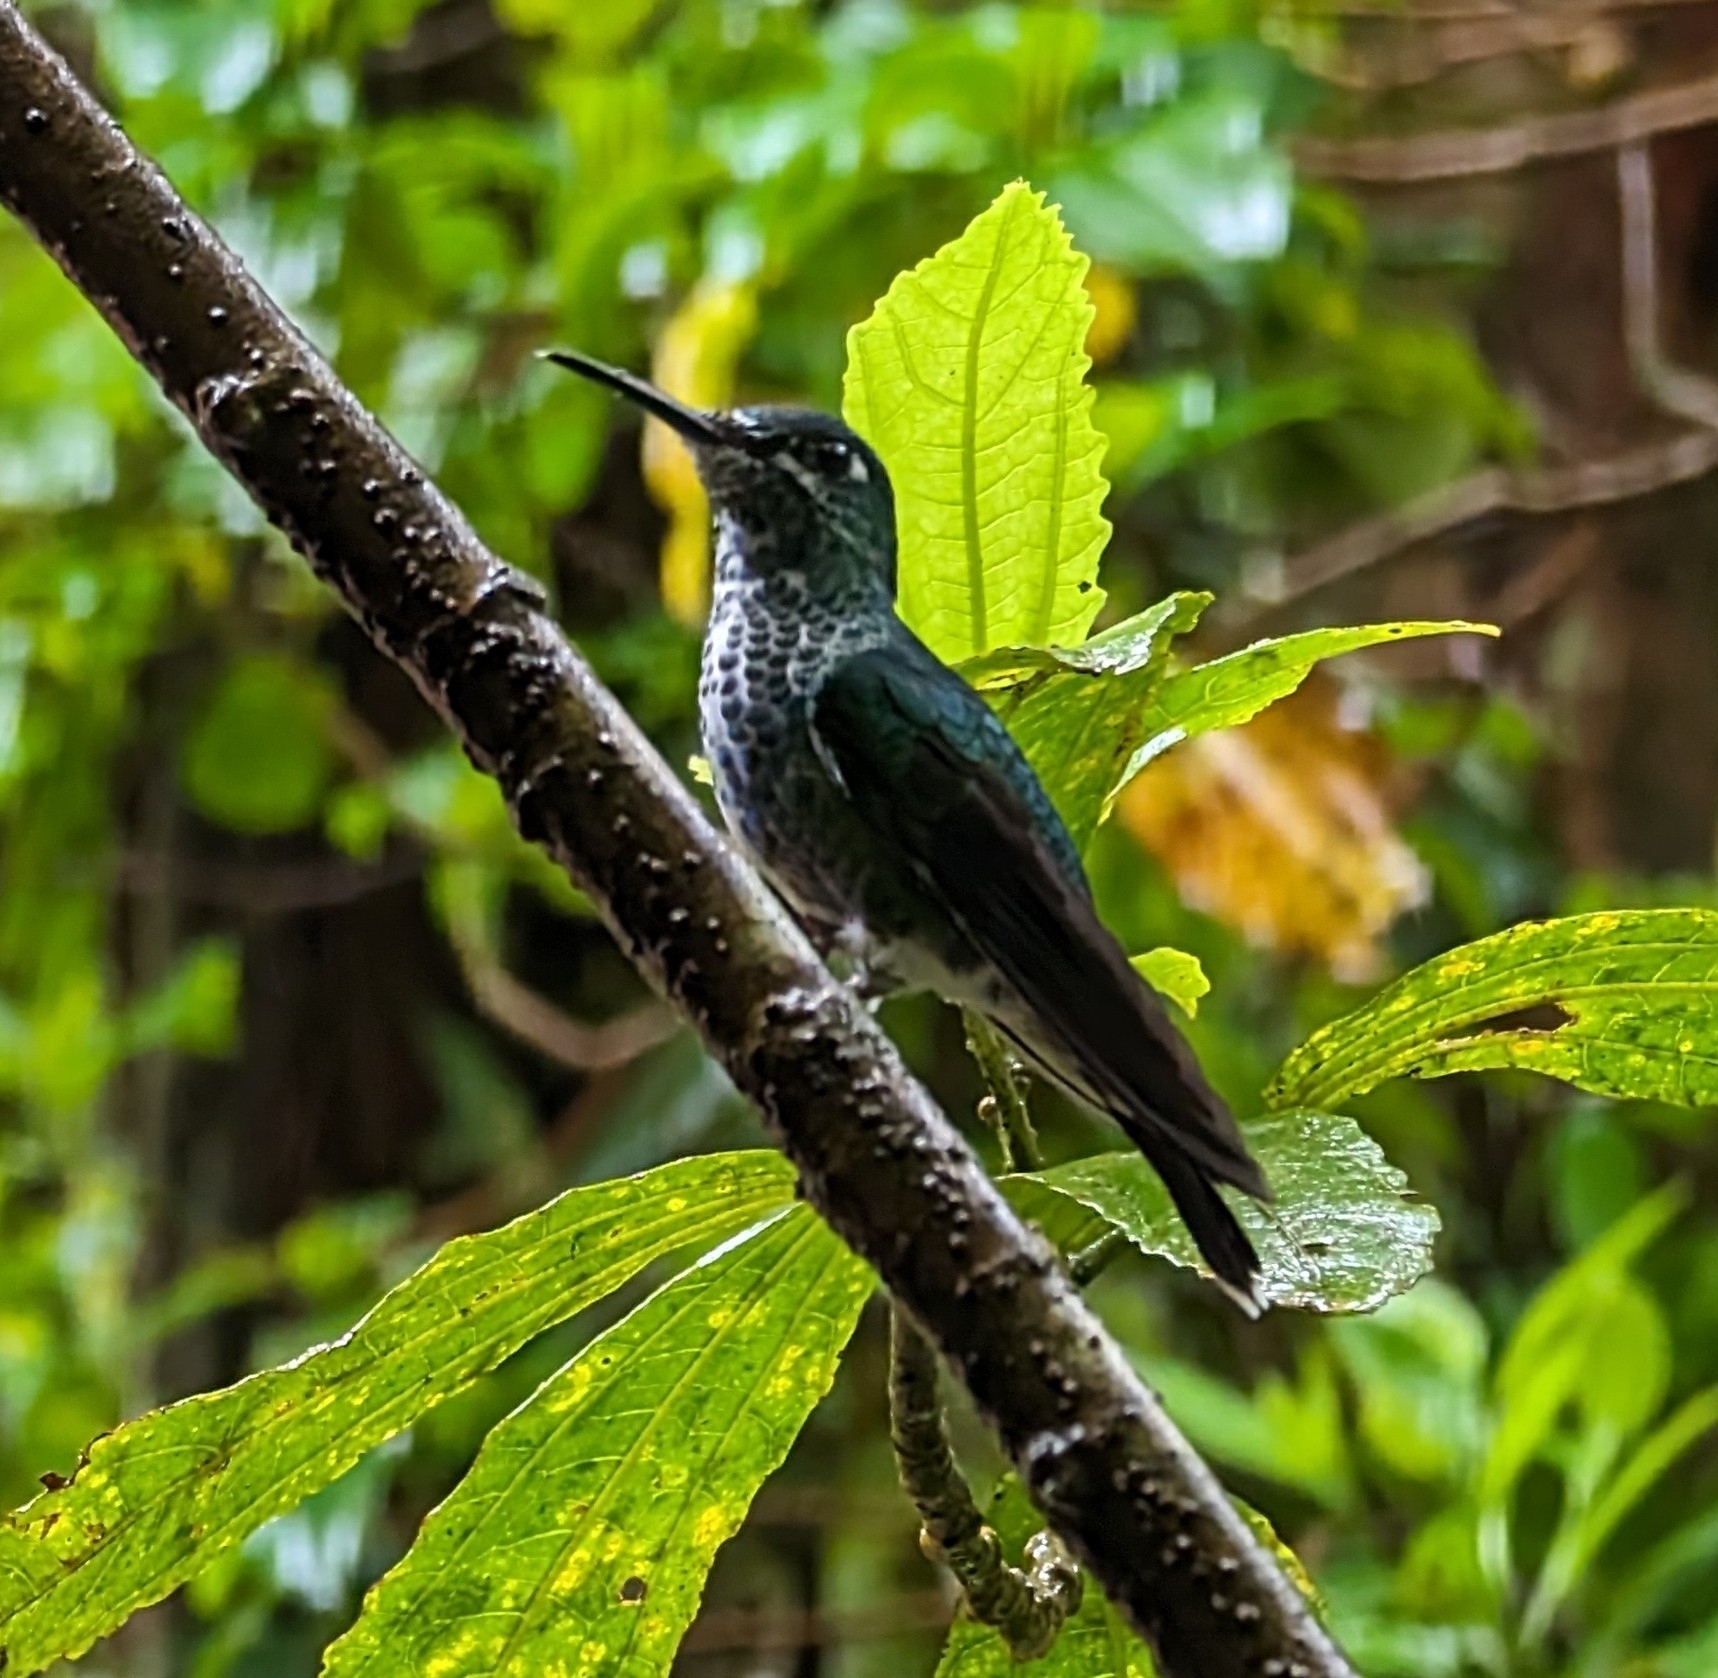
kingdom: Animalia
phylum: Chordata
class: Aves
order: Apodiformes
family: Trochilidae
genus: Heliodoxa
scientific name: Heliodoxa jacula
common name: Green-crowned brilliant
